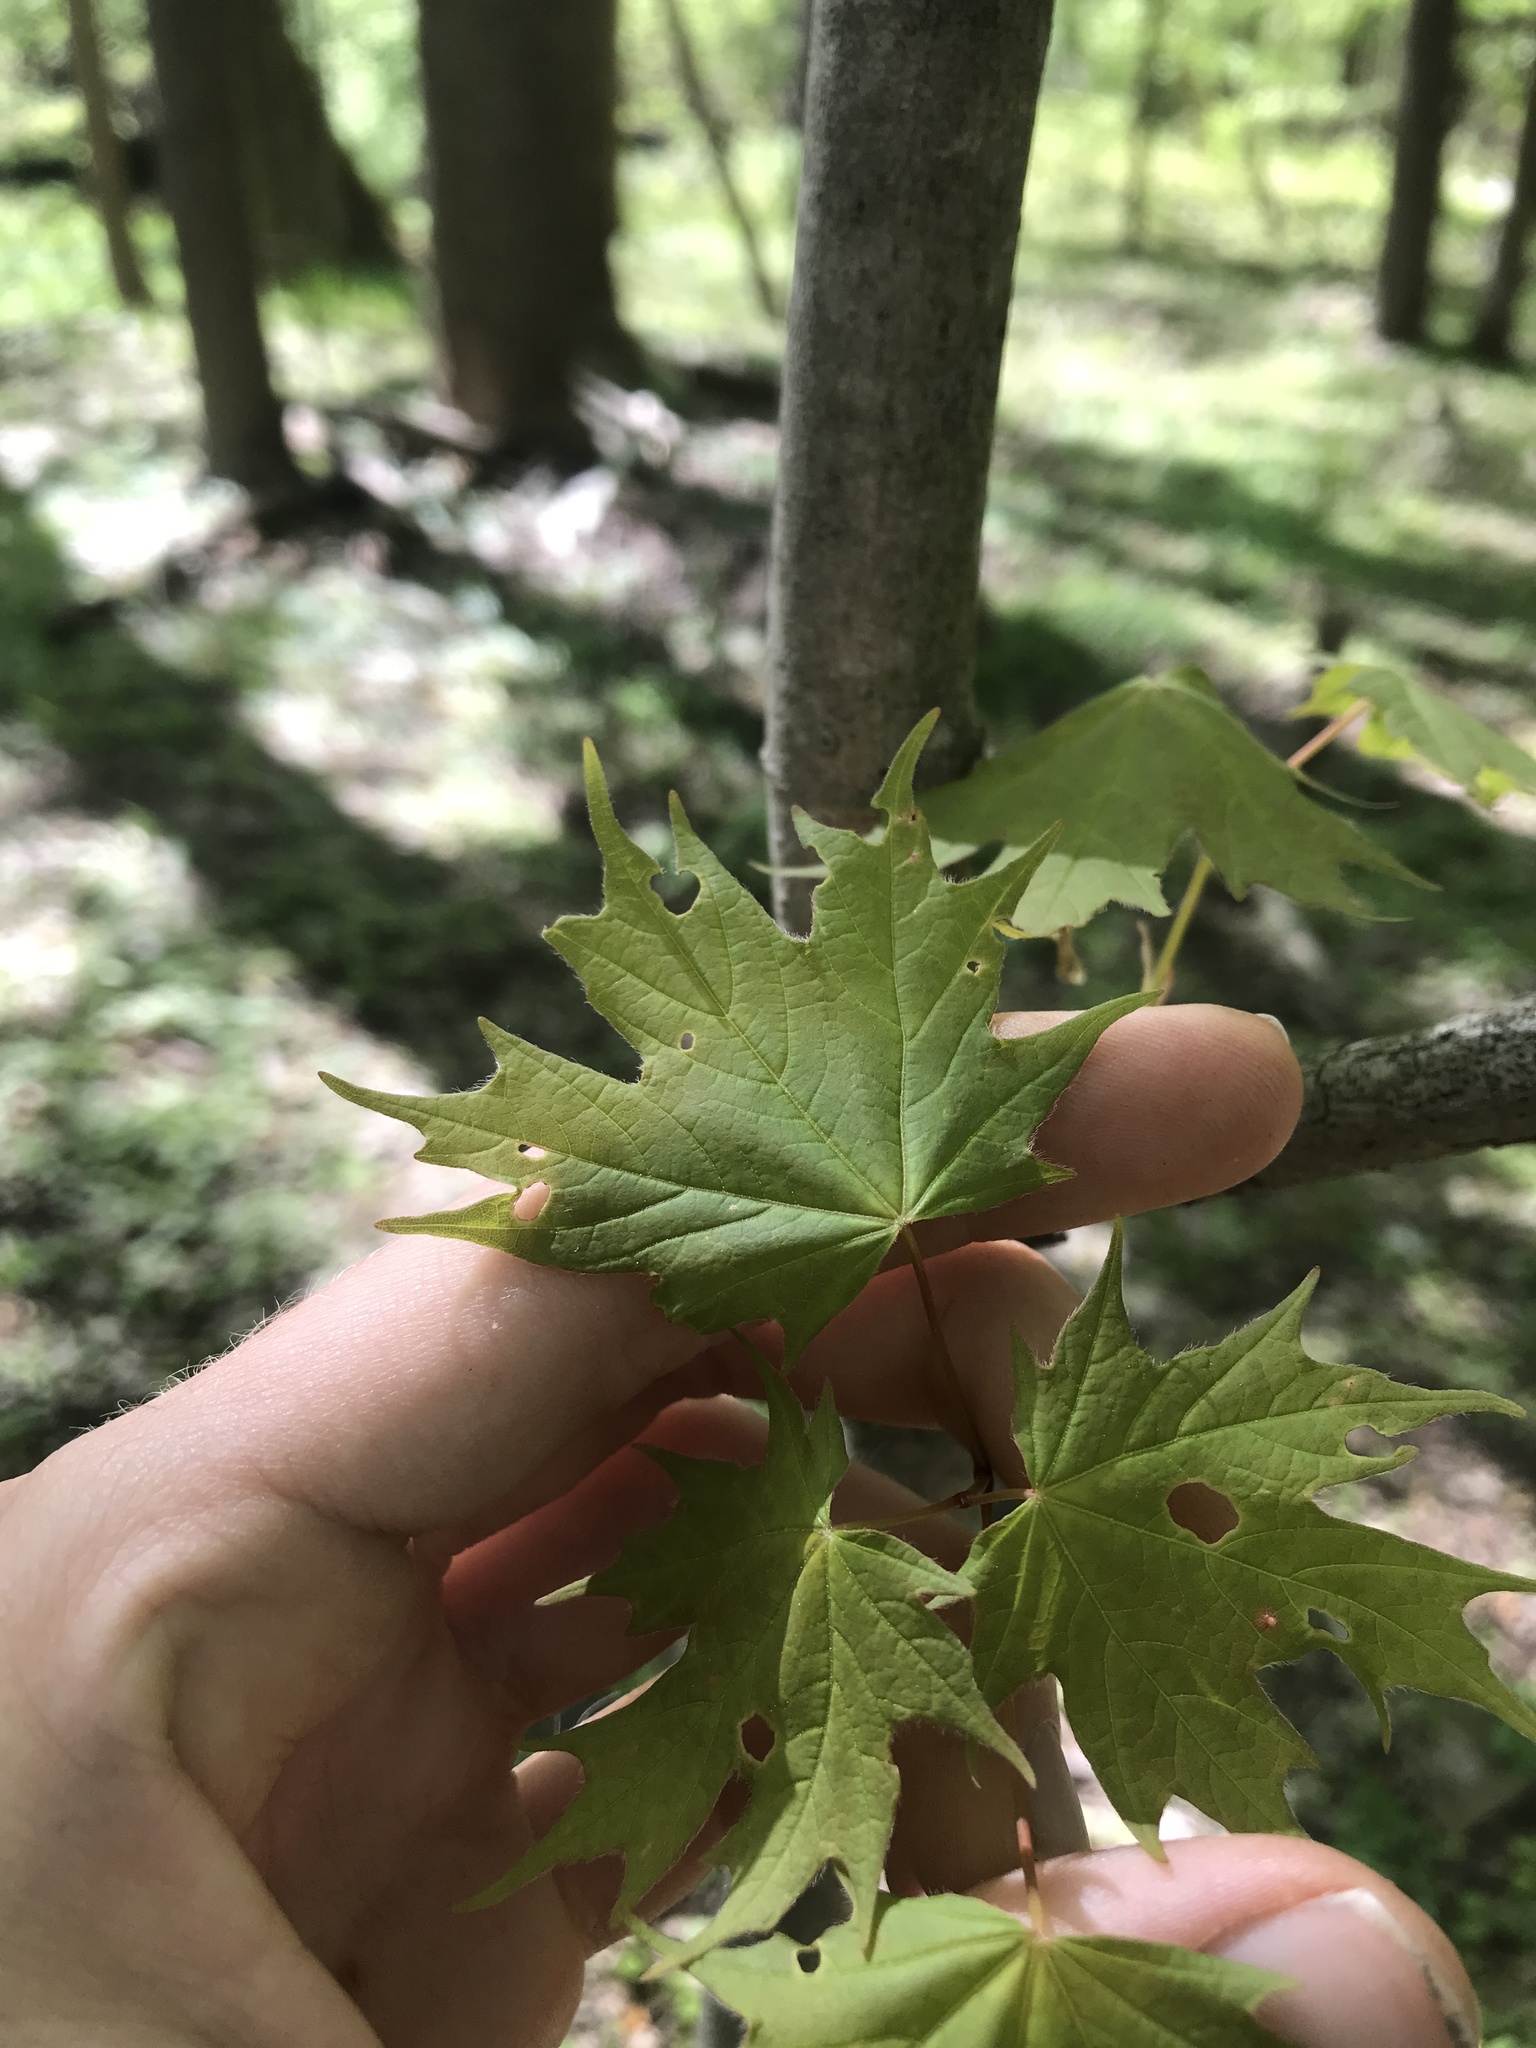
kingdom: Plantae
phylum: Tracheophyta
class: Magnoliopsida
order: Sapindales
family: Sapindaceae
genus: Acer
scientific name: Acer saccharum
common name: Sugar maple
